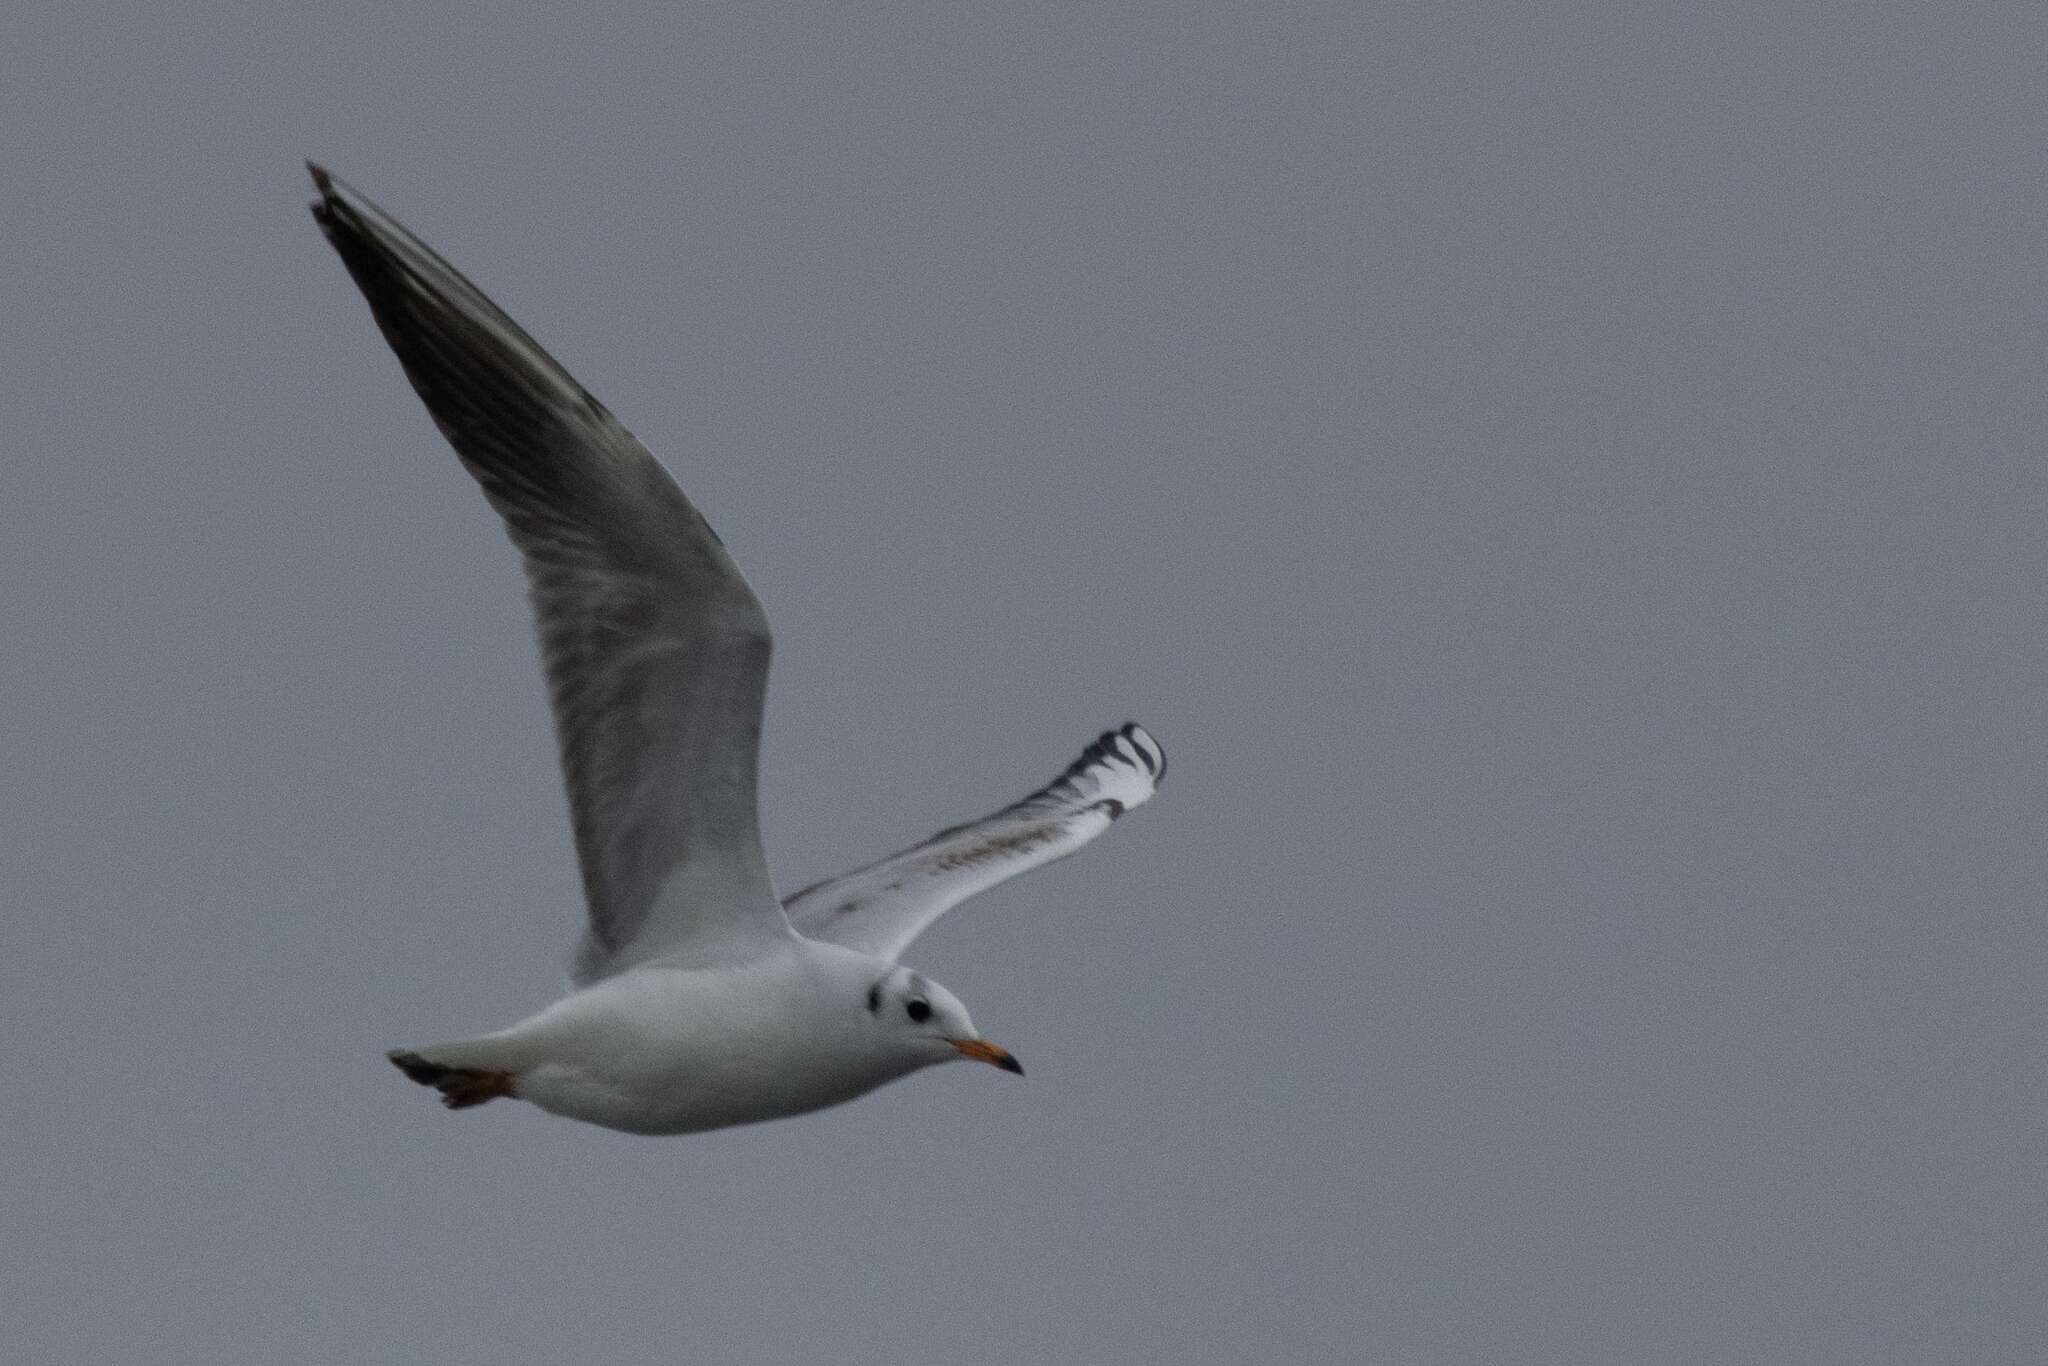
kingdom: Animalia
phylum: Chordata
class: Aves
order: Charadriiformes
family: Laridae
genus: Chroicocephalus
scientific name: Chroicocephalus ridibundus
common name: Black-headed gull
